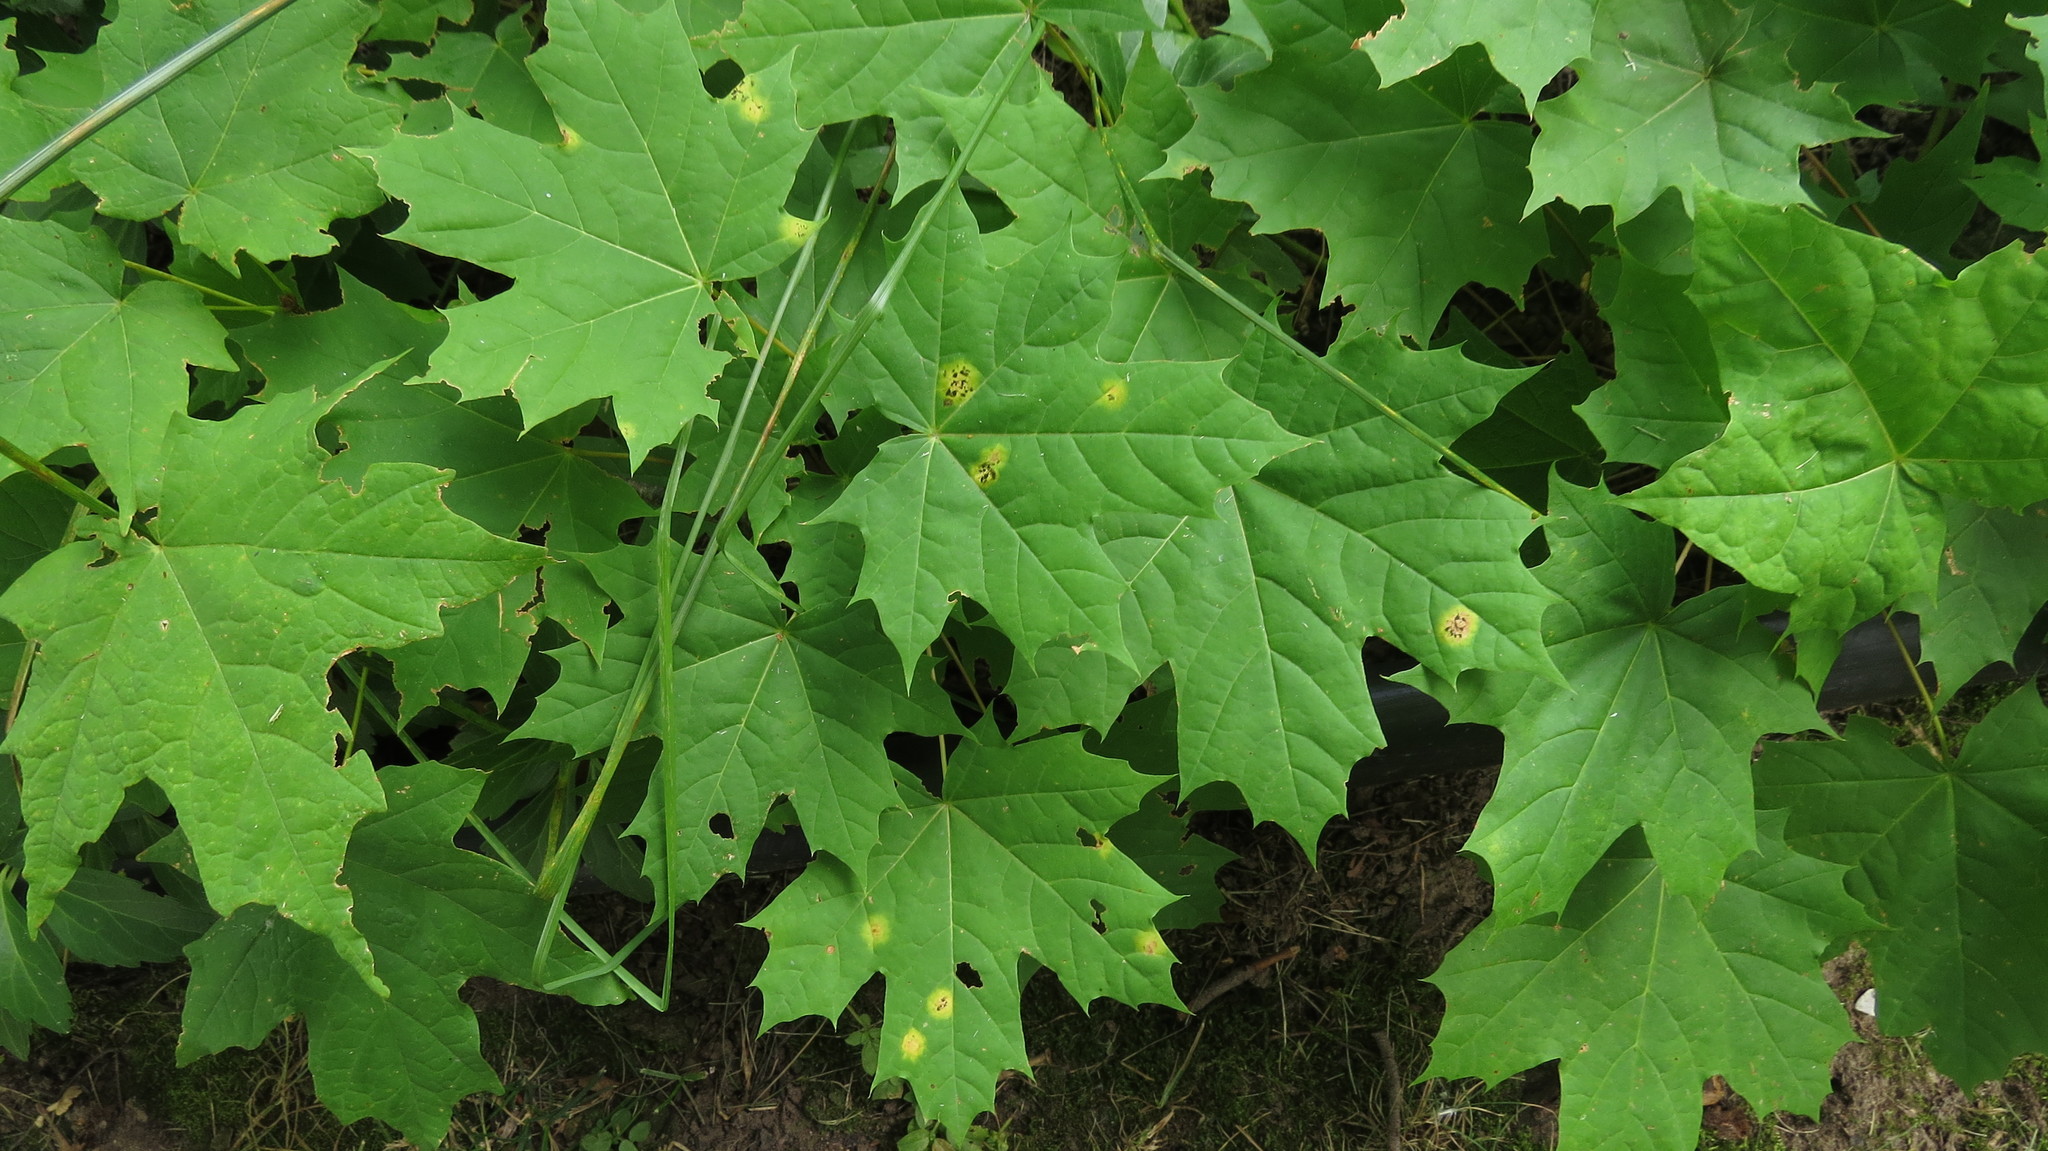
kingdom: Plantae
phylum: Tracheophyta
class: Magnoliopsida
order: Sapindales
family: Sapindaceae
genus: Acer
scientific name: Acer platanoides
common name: Norway maple
